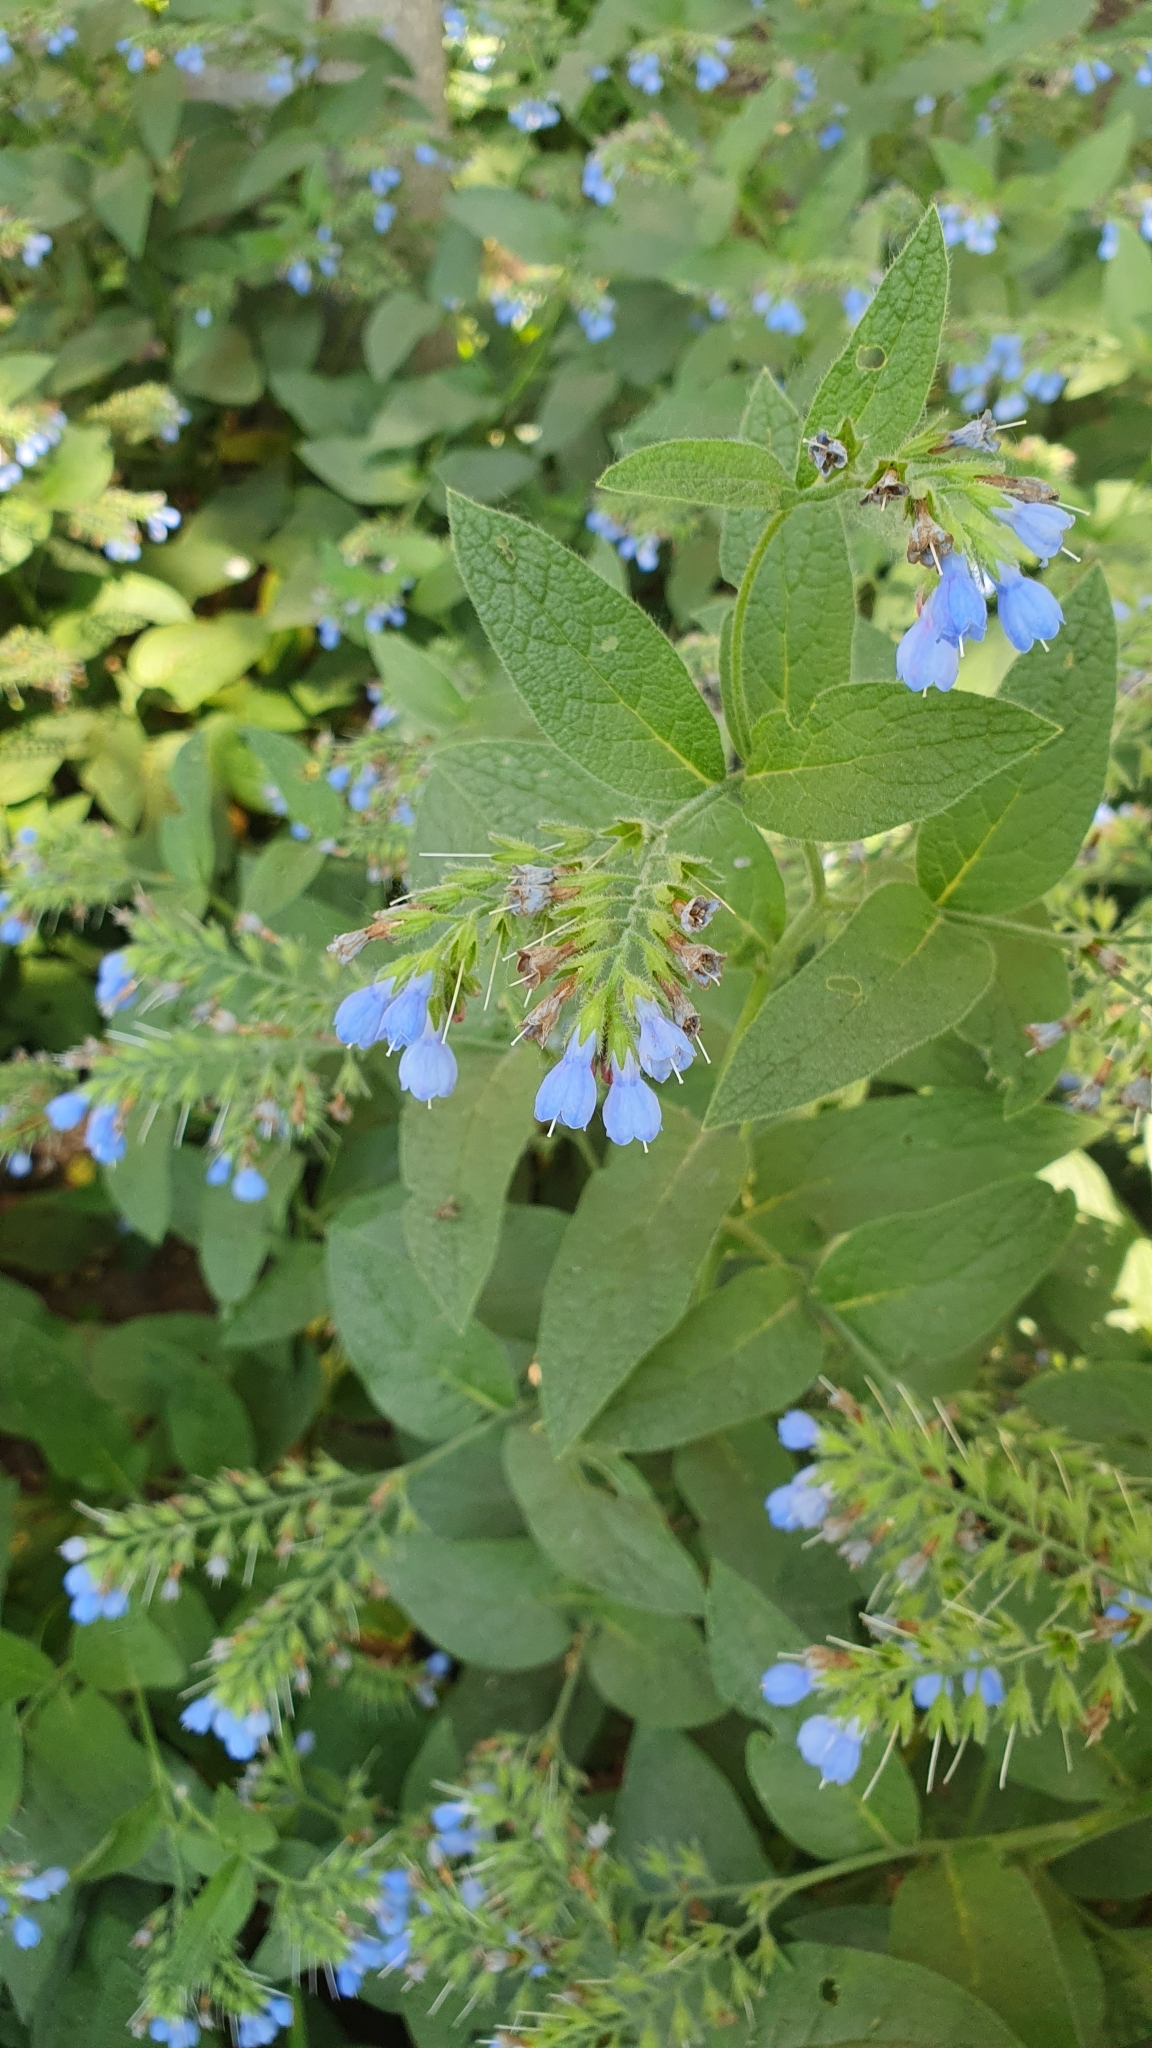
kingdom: Plantae
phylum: Tracheophyta
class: Magnoliopsida
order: Boraginales
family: Boraginaceae
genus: Symphytum
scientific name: Symphytum caucasicum
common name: Caucasian comfrey
